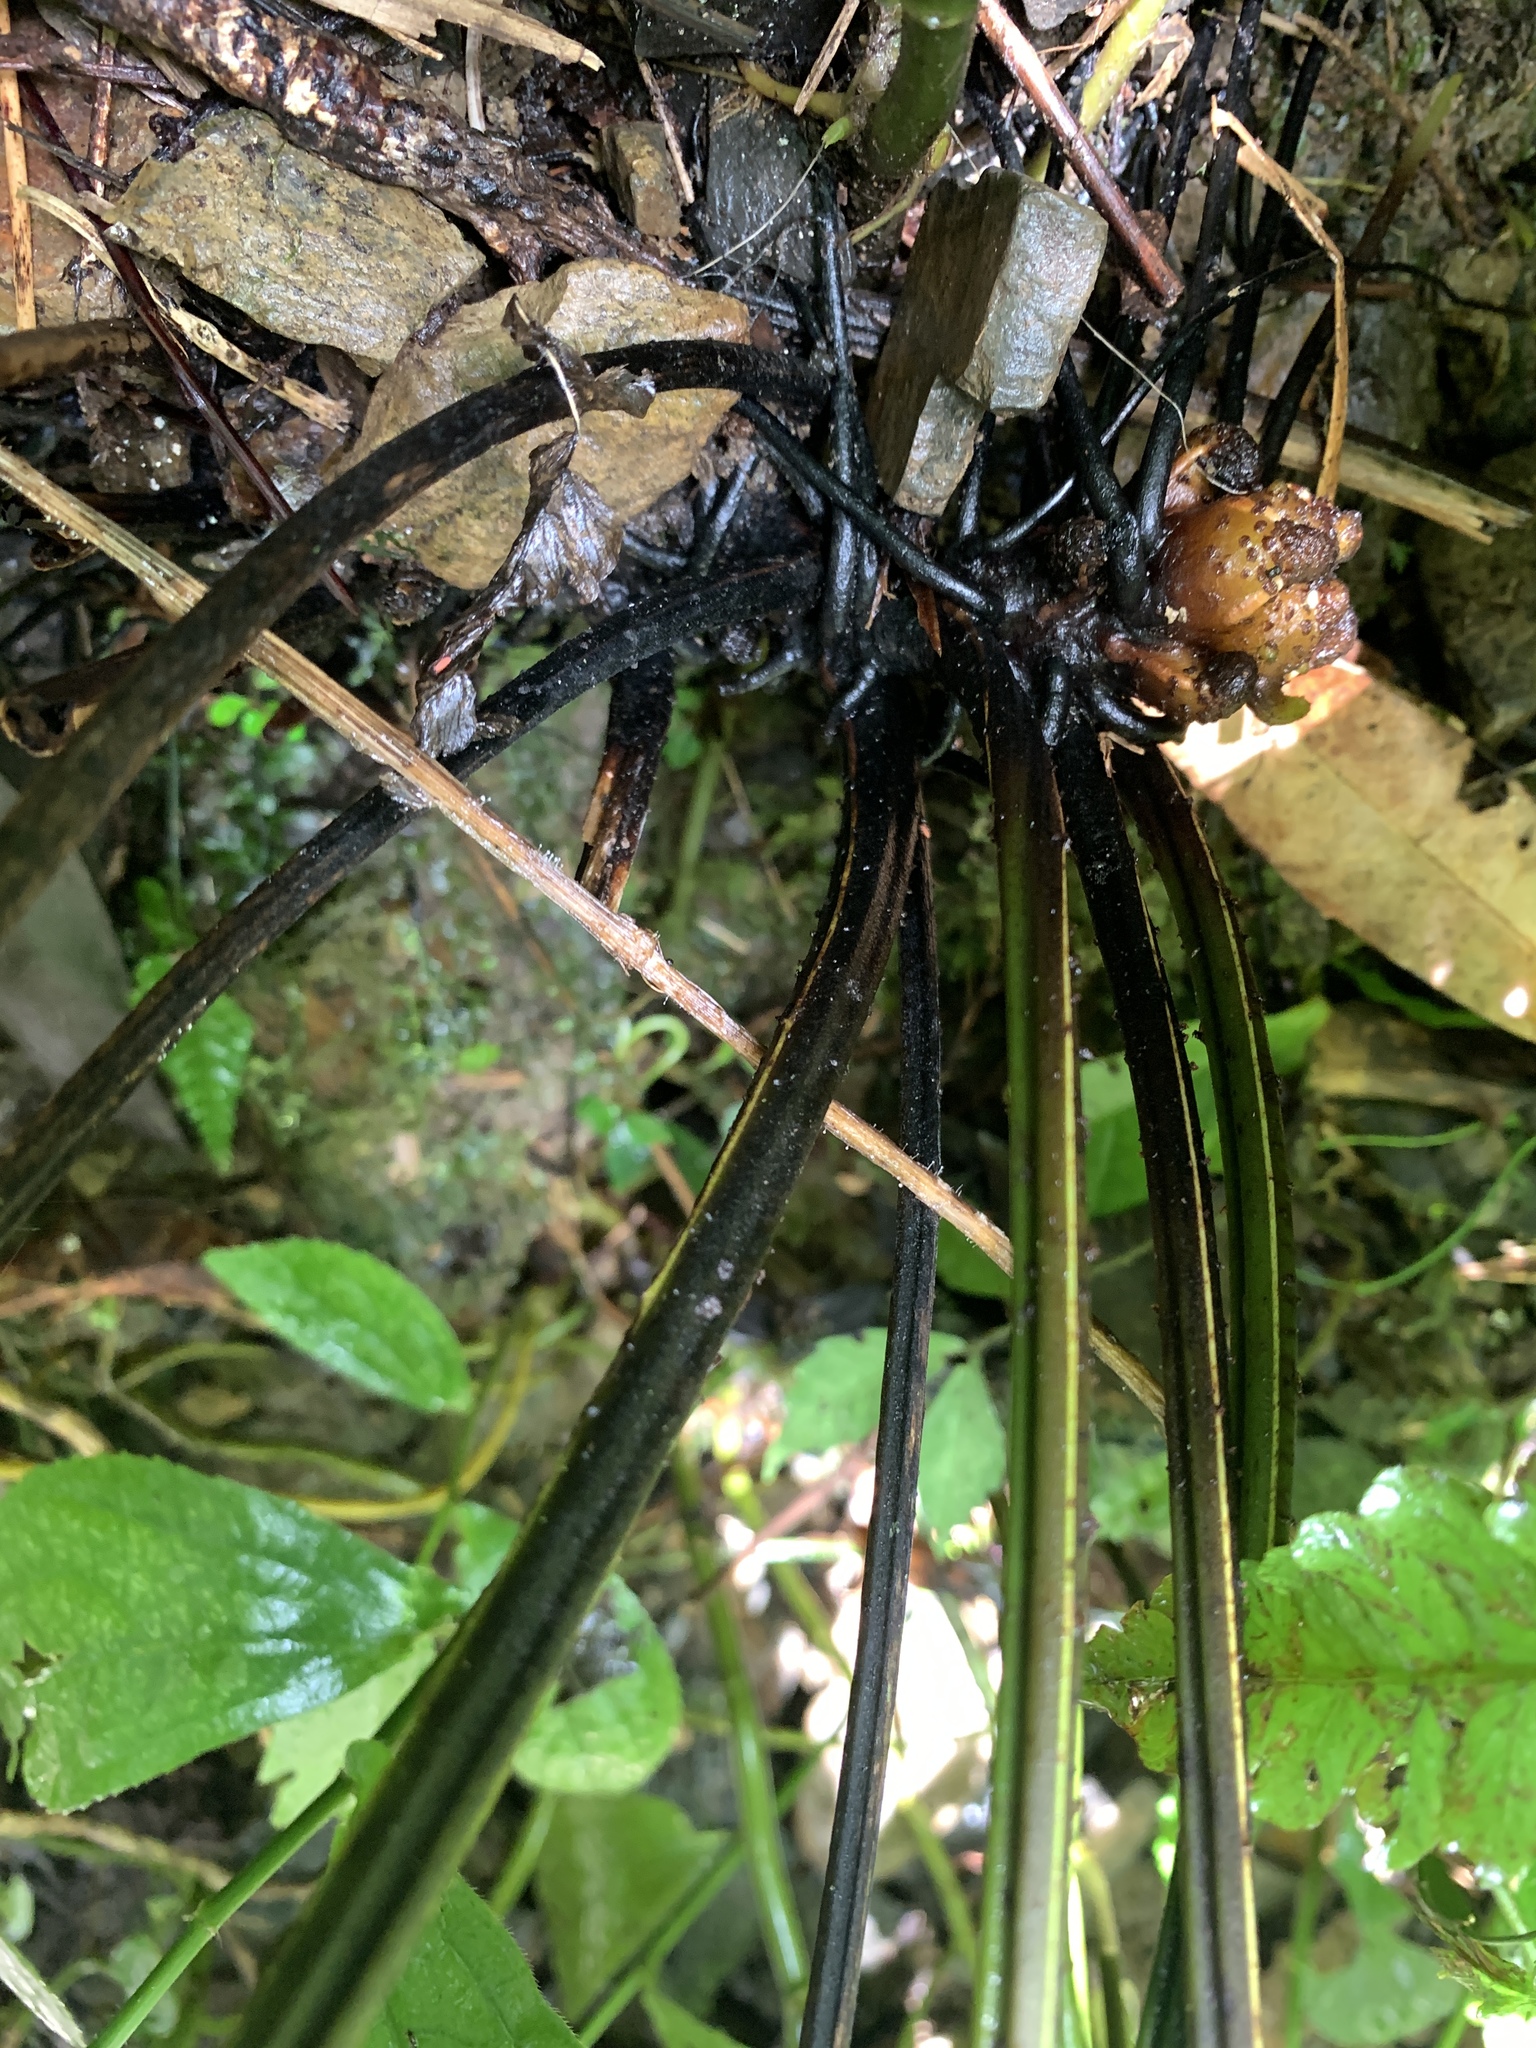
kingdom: Plantae
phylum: Tracheophyta
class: Polypodiopsida
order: Polypodiales
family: Athyriaceae
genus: Diplazium
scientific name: Diplazium doederleinii
